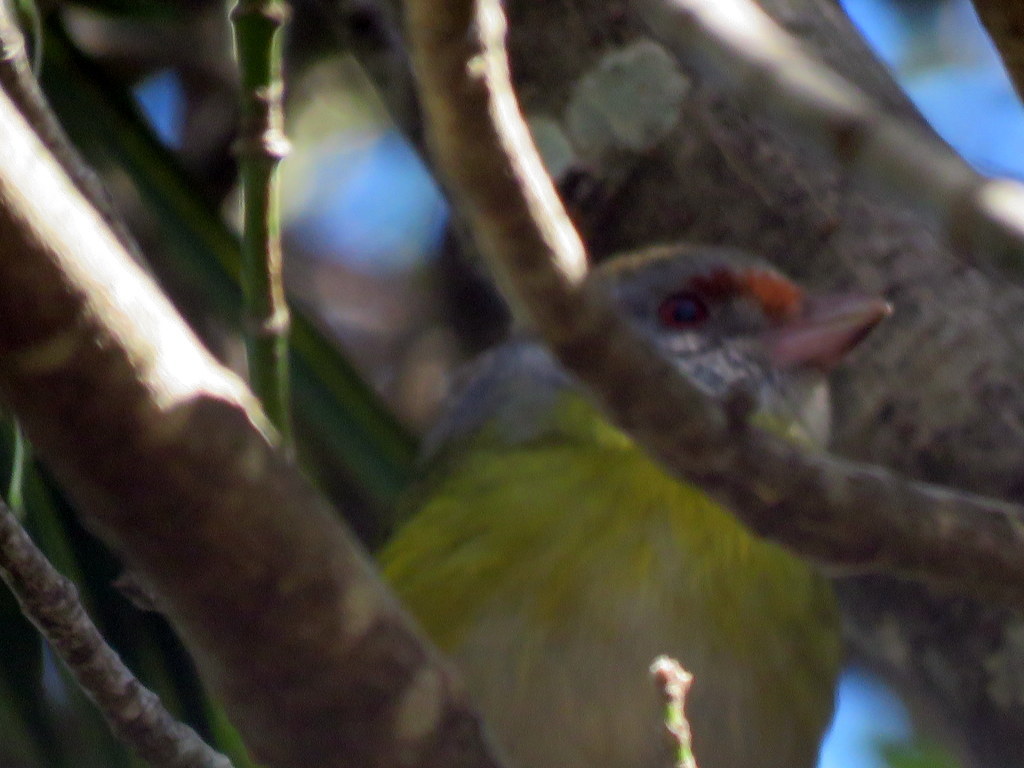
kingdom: Animalia
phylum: Chordata
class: Aves
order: Passeriformes
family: Vireonidae
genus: Cyclarhis
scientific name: Cyclarhis gujanensis
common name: Rufous-browed peppershrike
